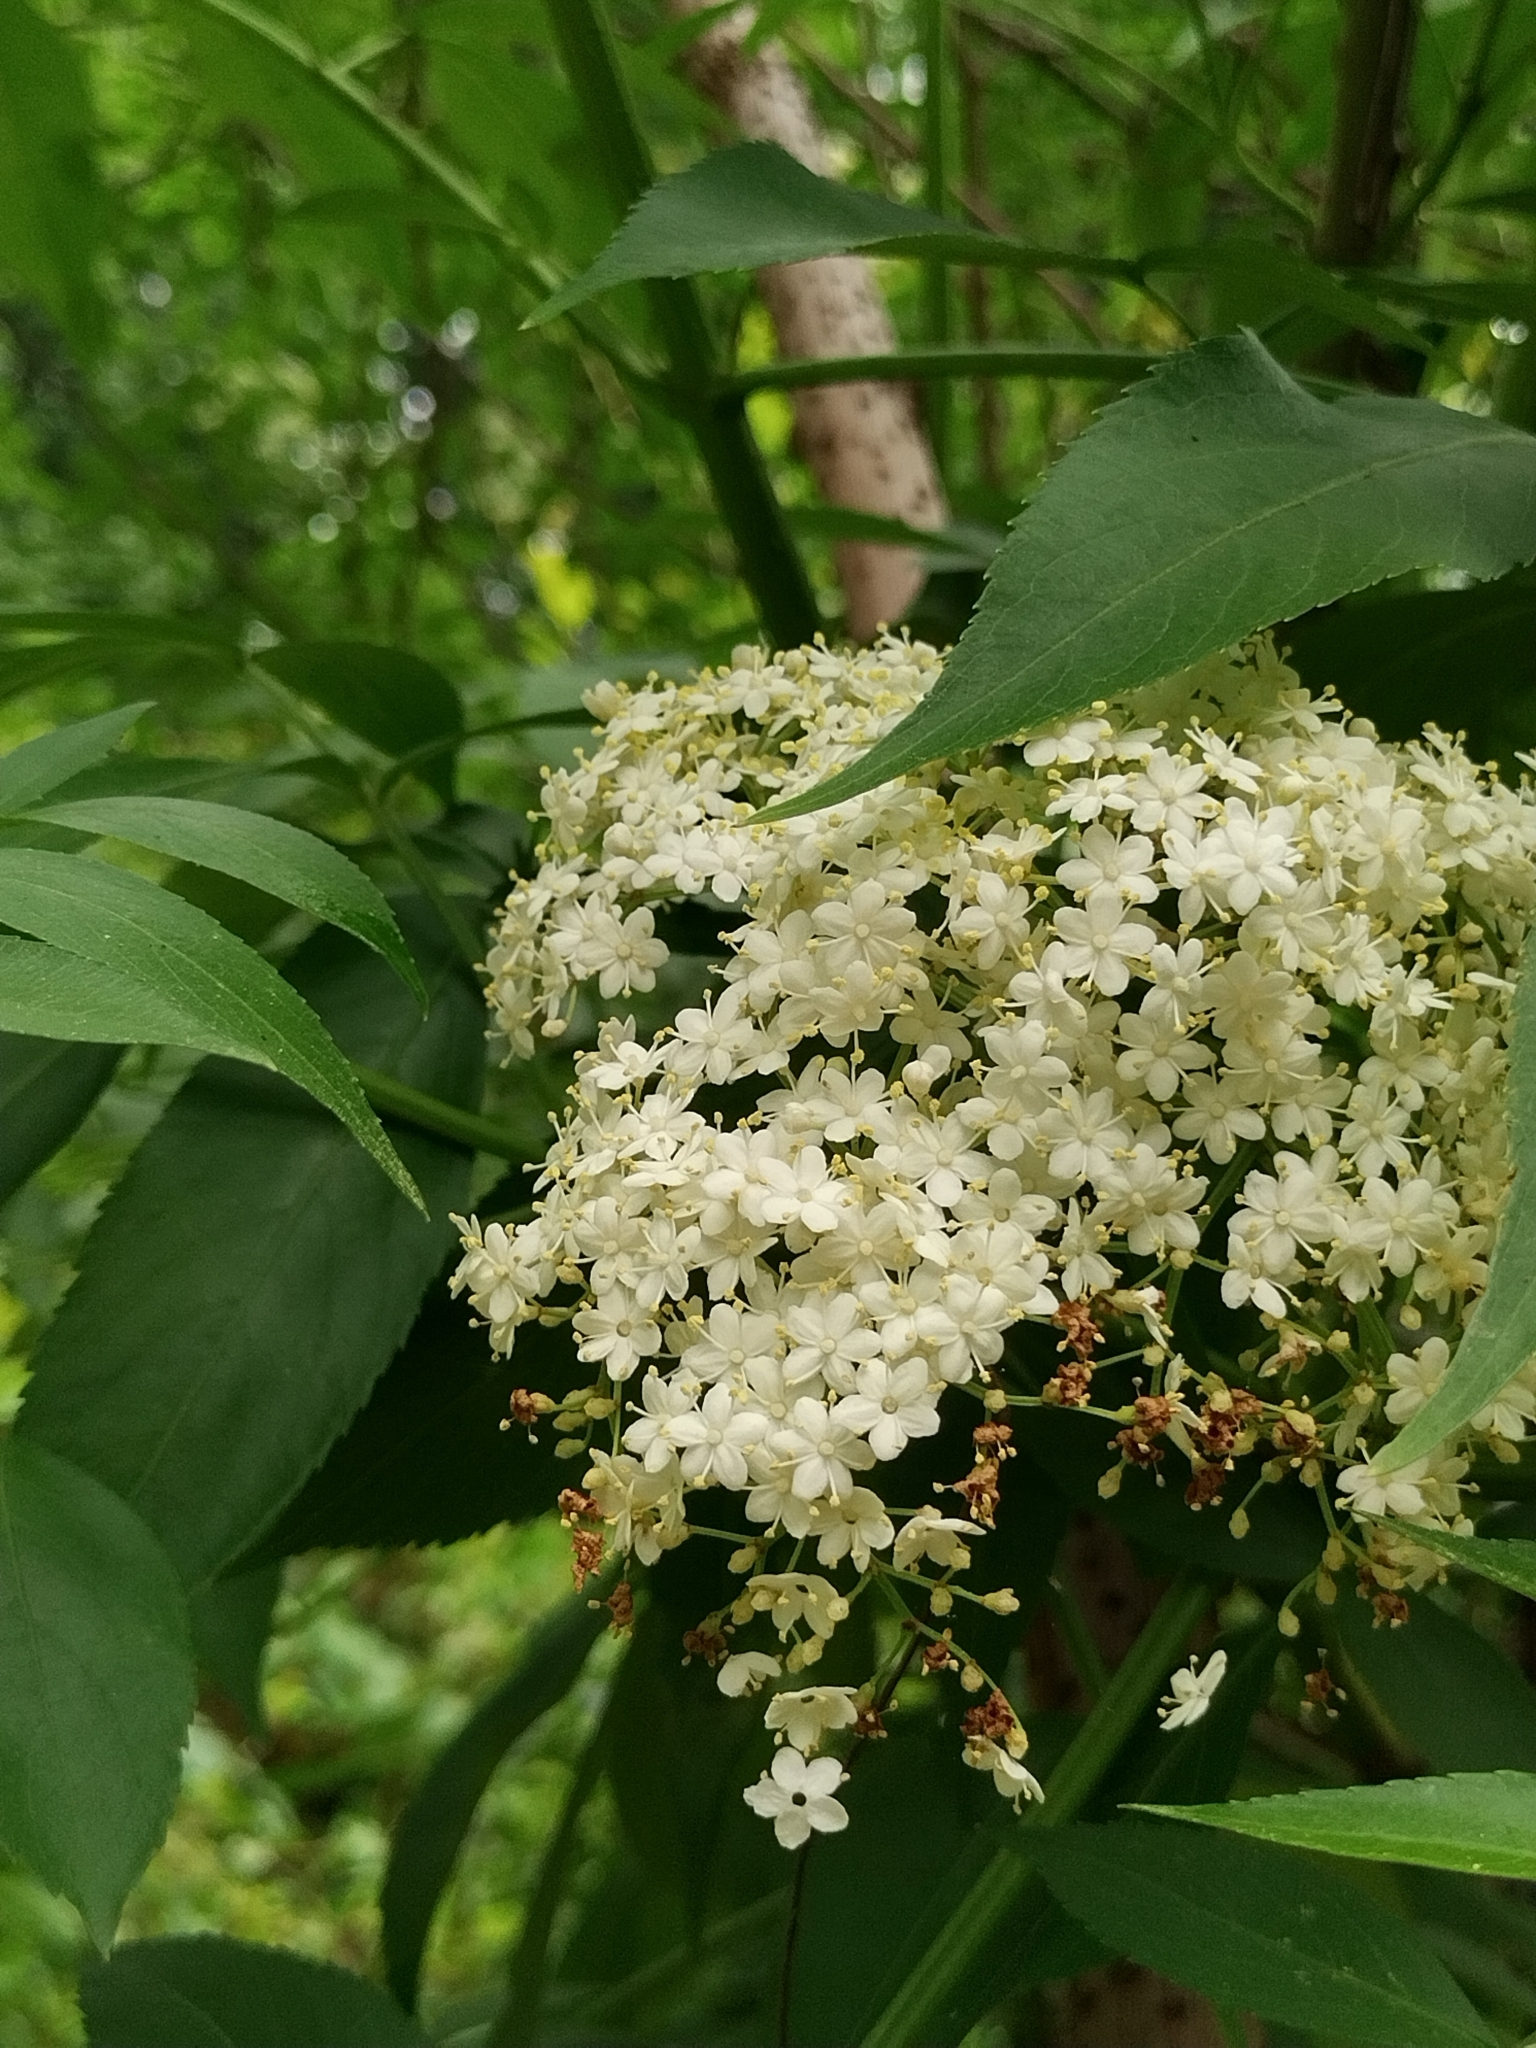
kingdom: Plantae
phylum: Tracheophyta
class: Magnoliopsida
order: Dipsacales
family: Viburnaceae
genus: Sambucus
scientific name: Sambucus canadensis
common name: American elder
